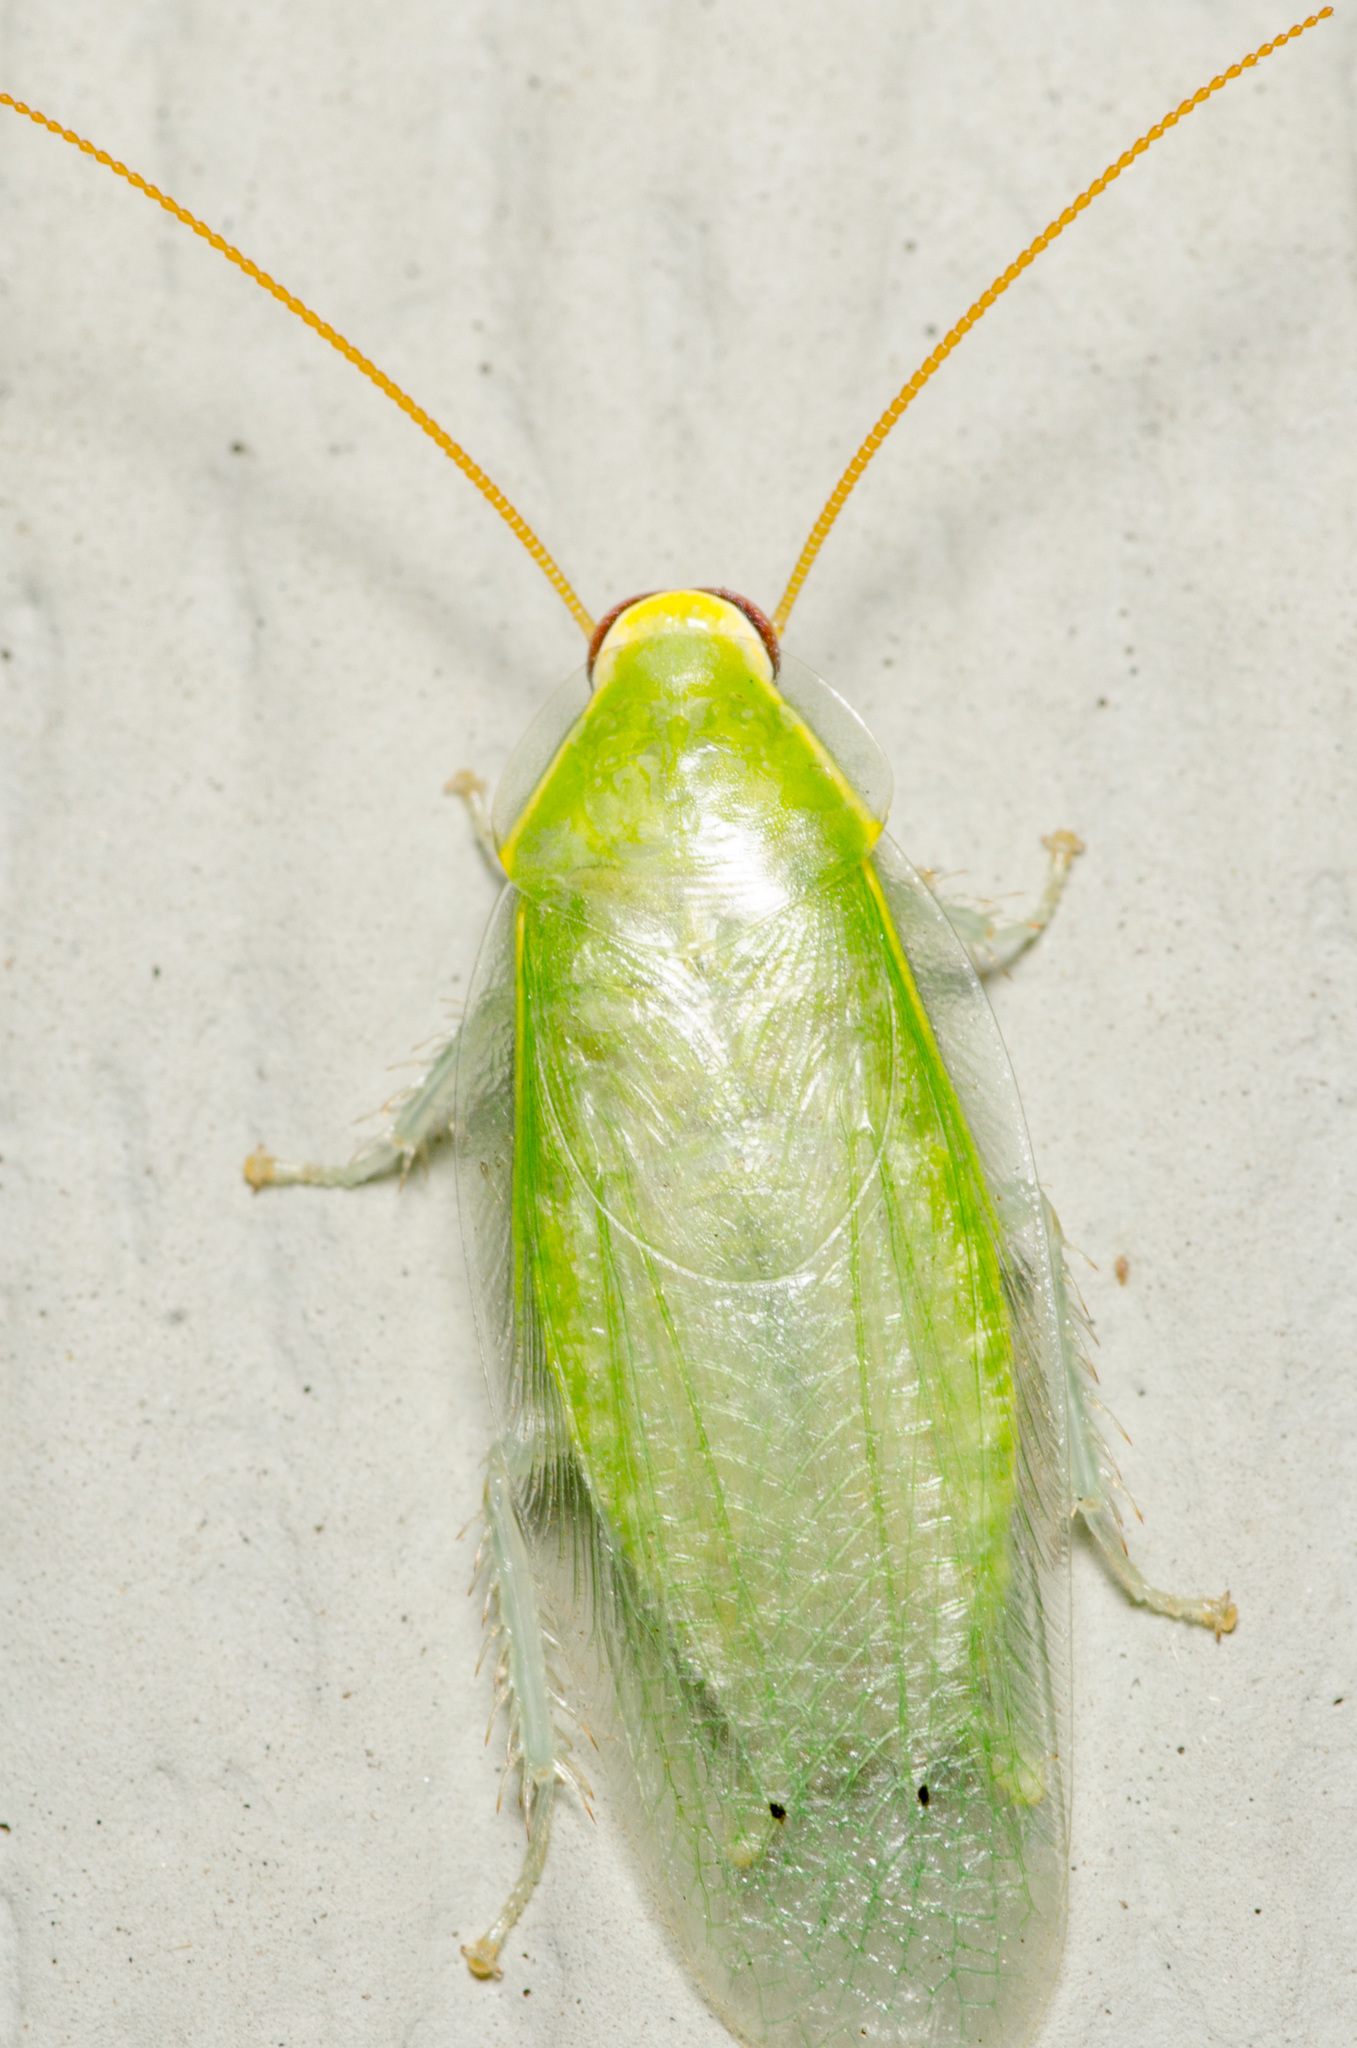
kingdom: Animalia
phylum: Arthropoda
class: Insecta
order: Blattodea
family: Blaberidae
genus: Panchlora
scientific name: Panchlora nivea
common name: Cuban cockroach
